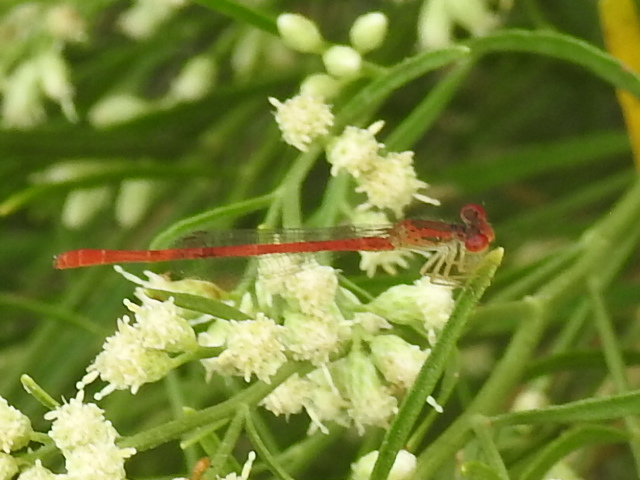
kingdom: Animalia
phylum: Arthropoda
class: Insecta
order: Odonata
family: Coenagrionidae
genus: Telebasis
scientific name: Telebasis salva
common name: Desert firetail
